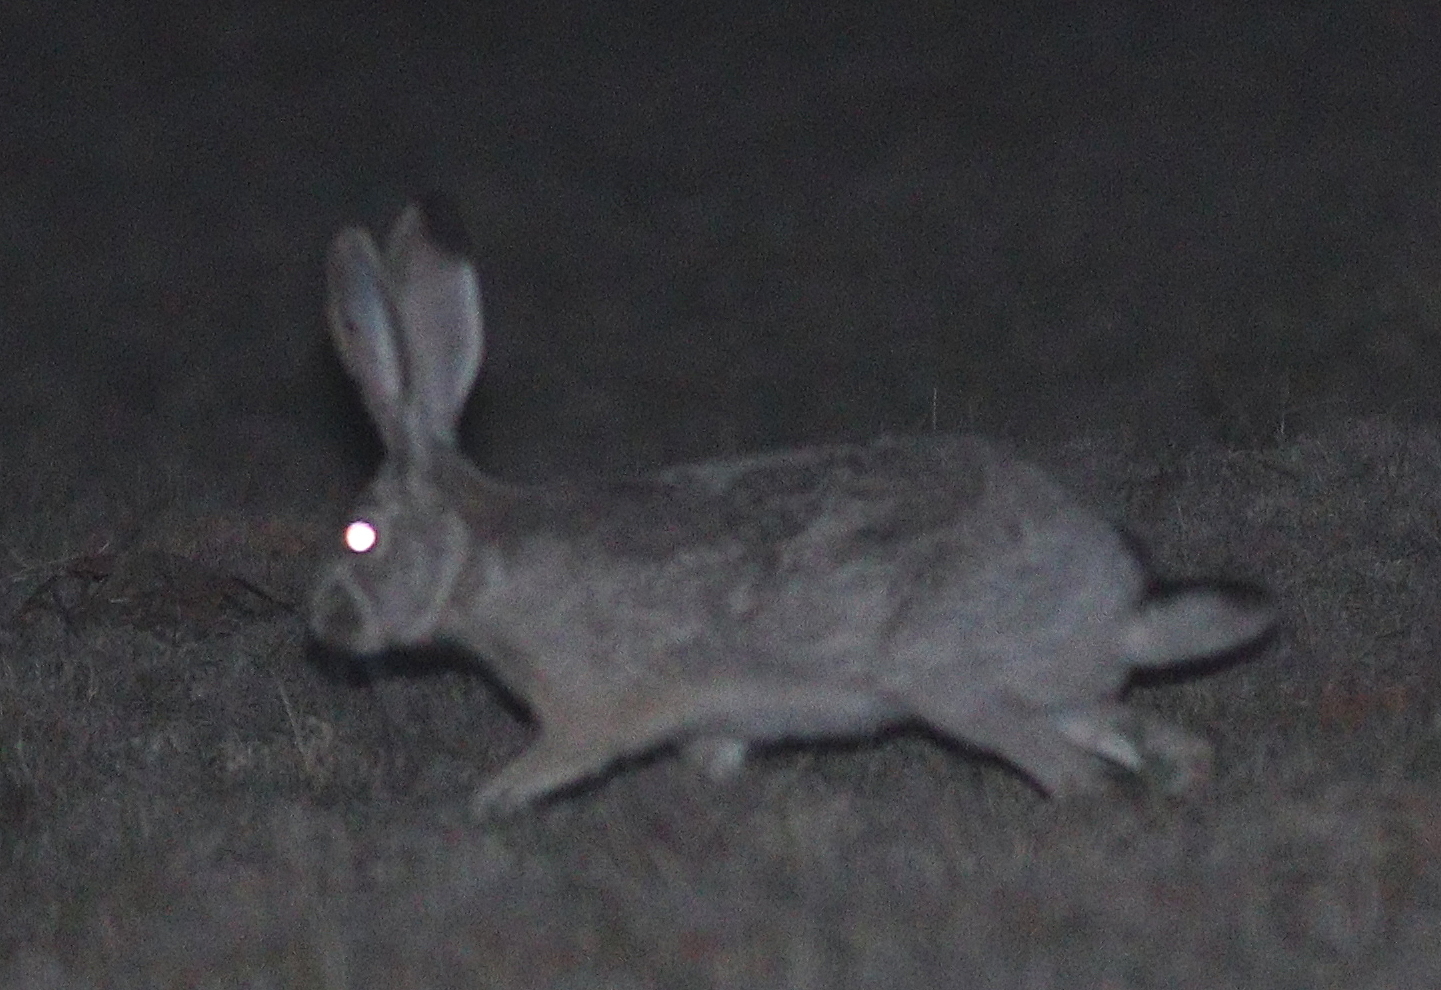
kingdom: Animalia
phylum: Chordata
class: Mammalia
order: Lagomorpha
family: Leporidae
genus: Lepus
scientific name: Lepus californicus
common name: Black-tailed jackrabbit
